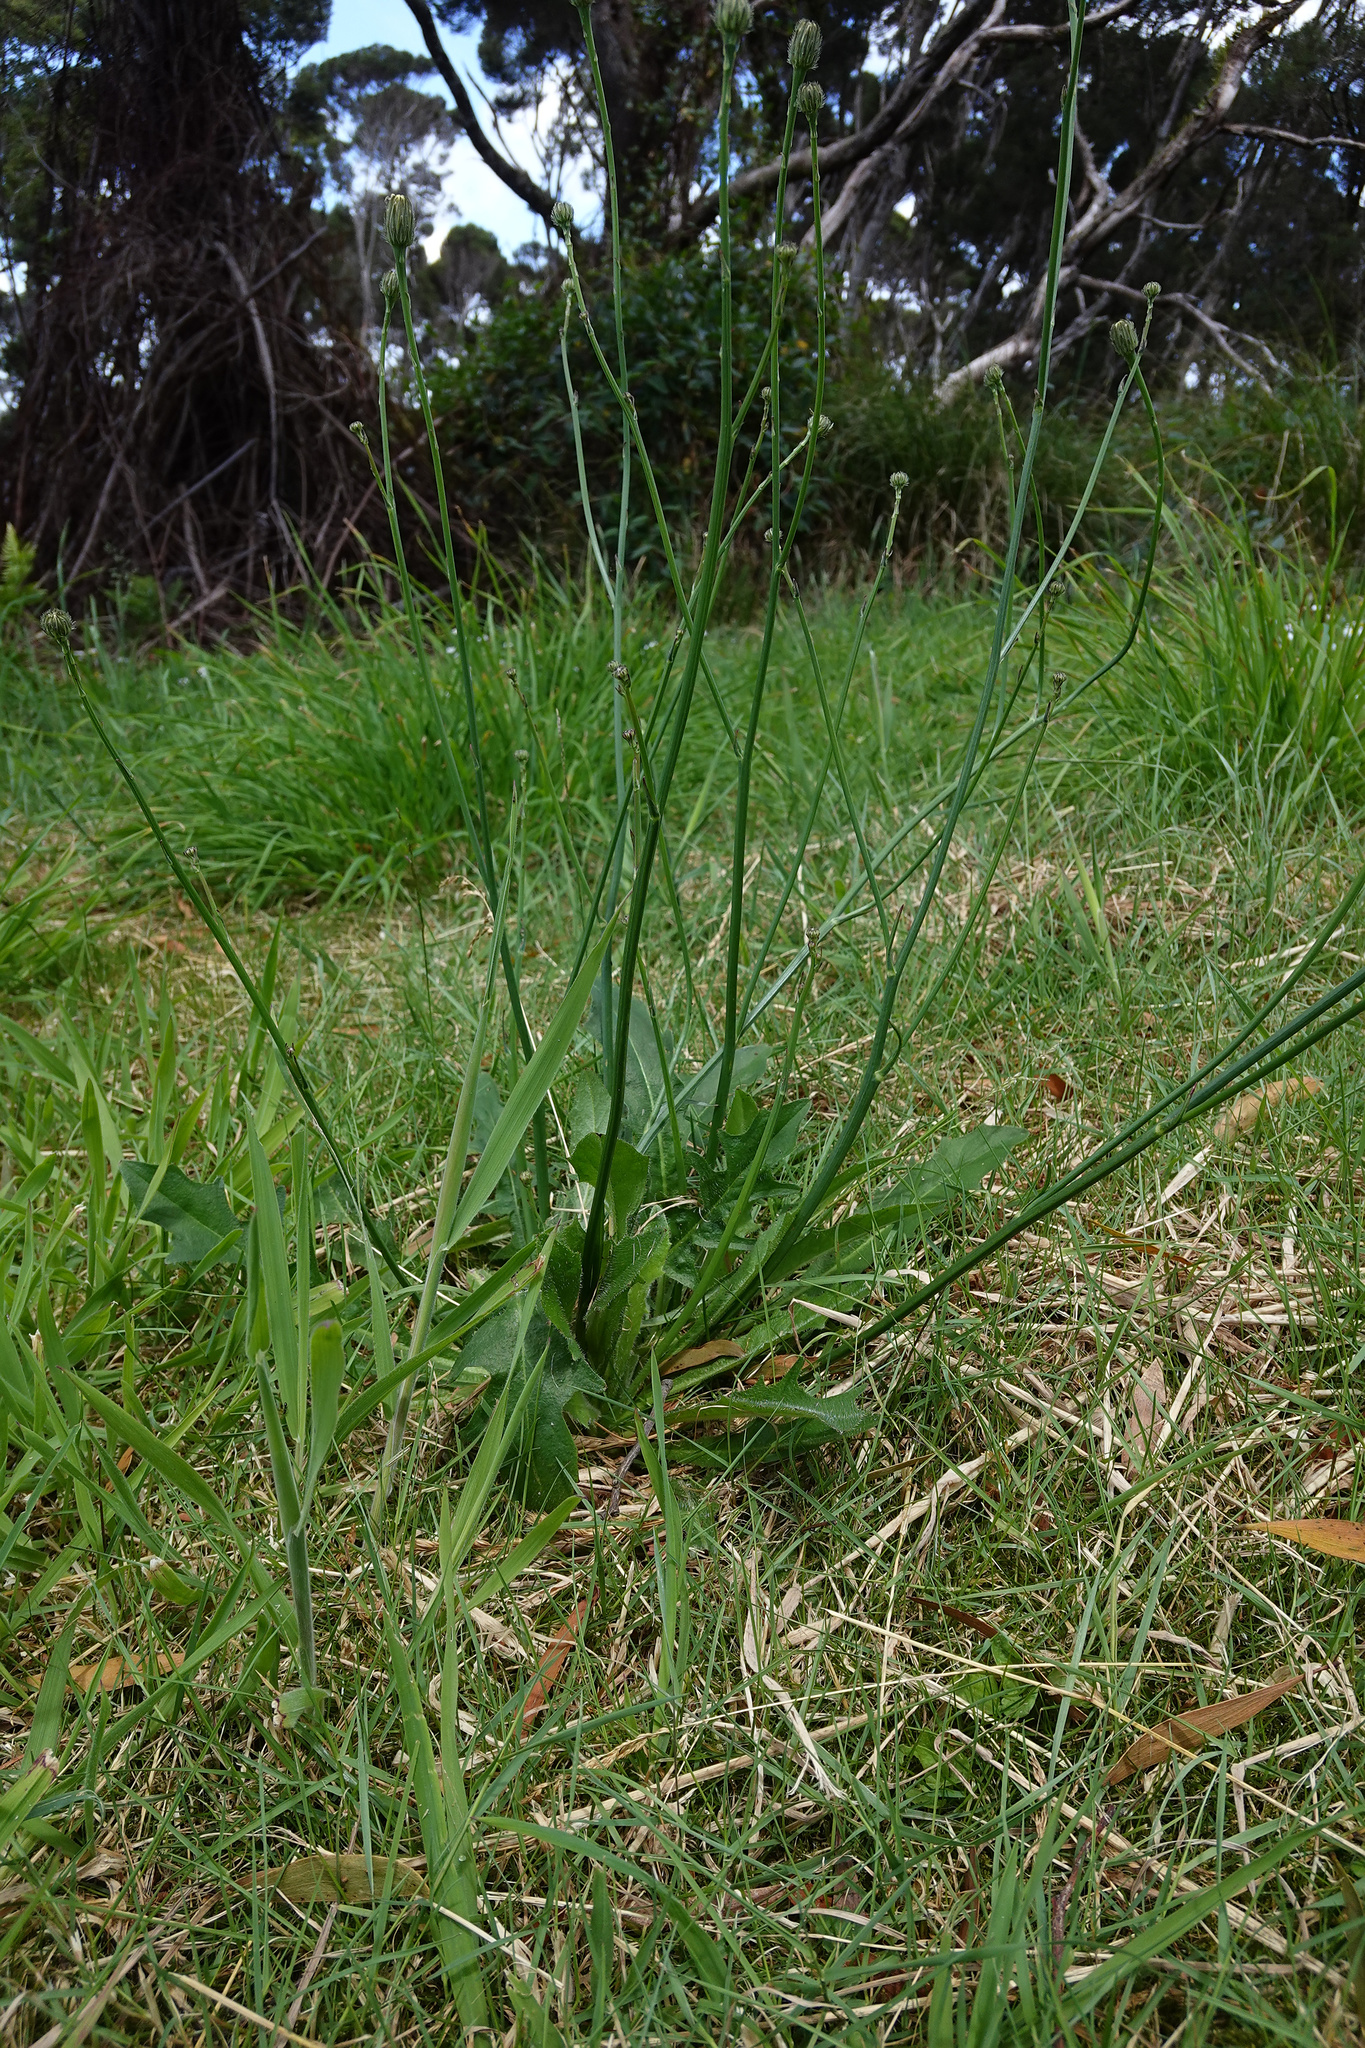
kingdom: Plantae
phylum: Tracheophyta
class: Magnoliopsida
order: Asterales
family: Asteraceae
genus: Hypochaeris
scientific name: Hypochaeris radicata
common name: Flatweed
